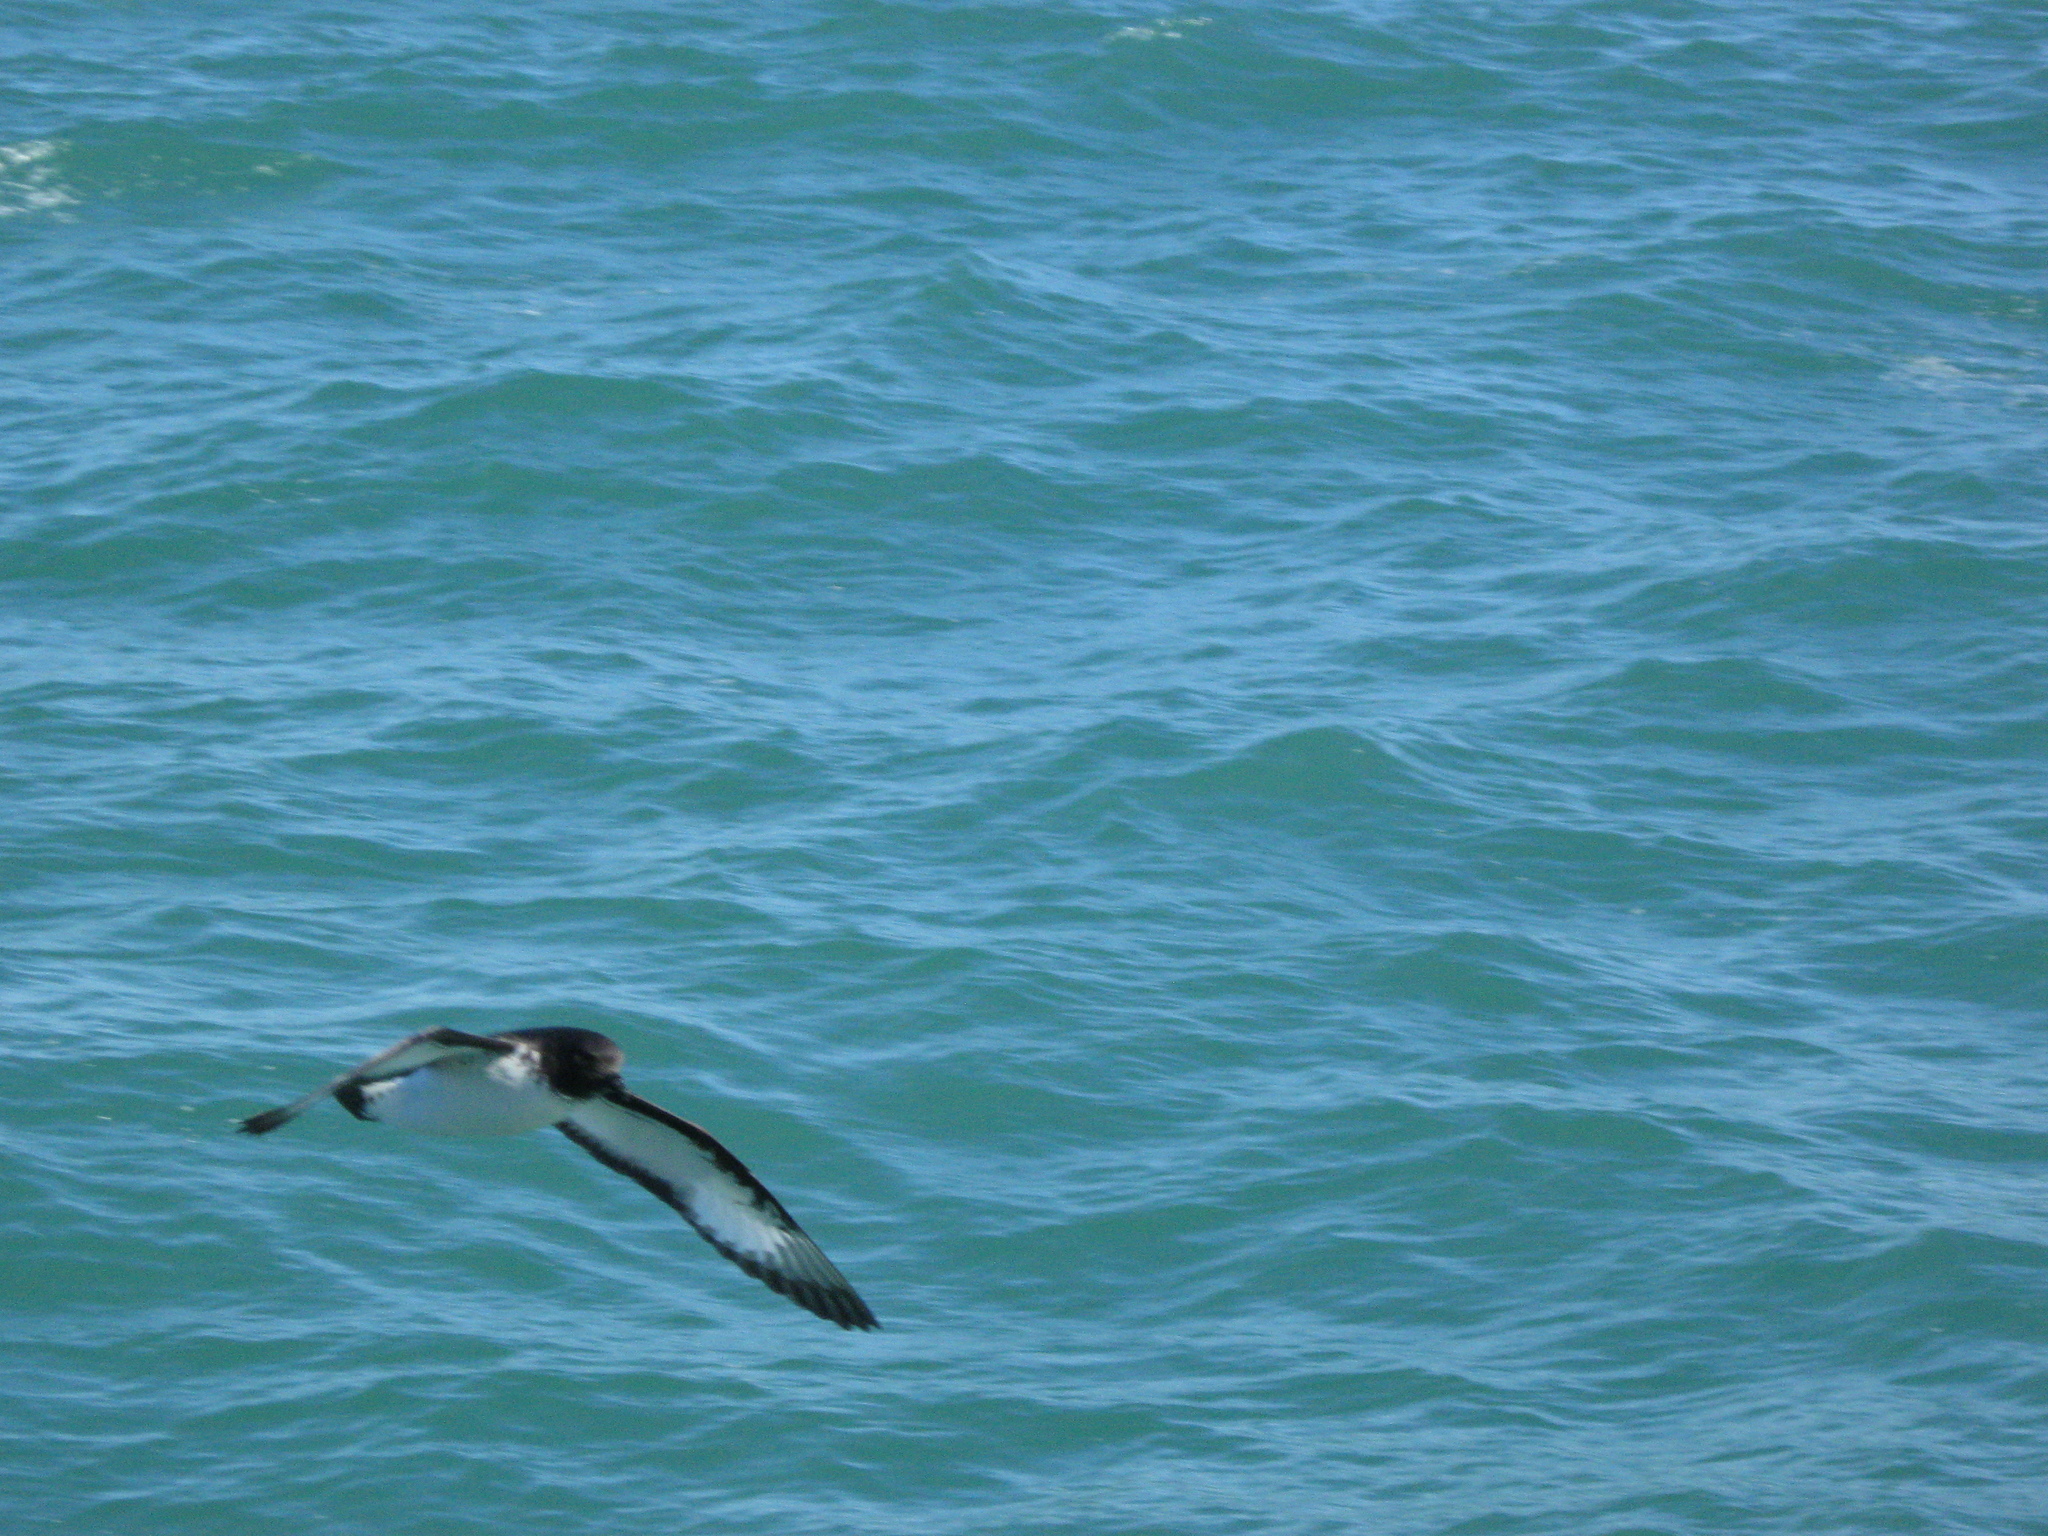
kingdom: Animalia
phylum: Chordata
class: Aves
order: Procellariiformes
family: Procellariidae
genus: Daption
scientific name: Daption capense
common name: Cape petrel
